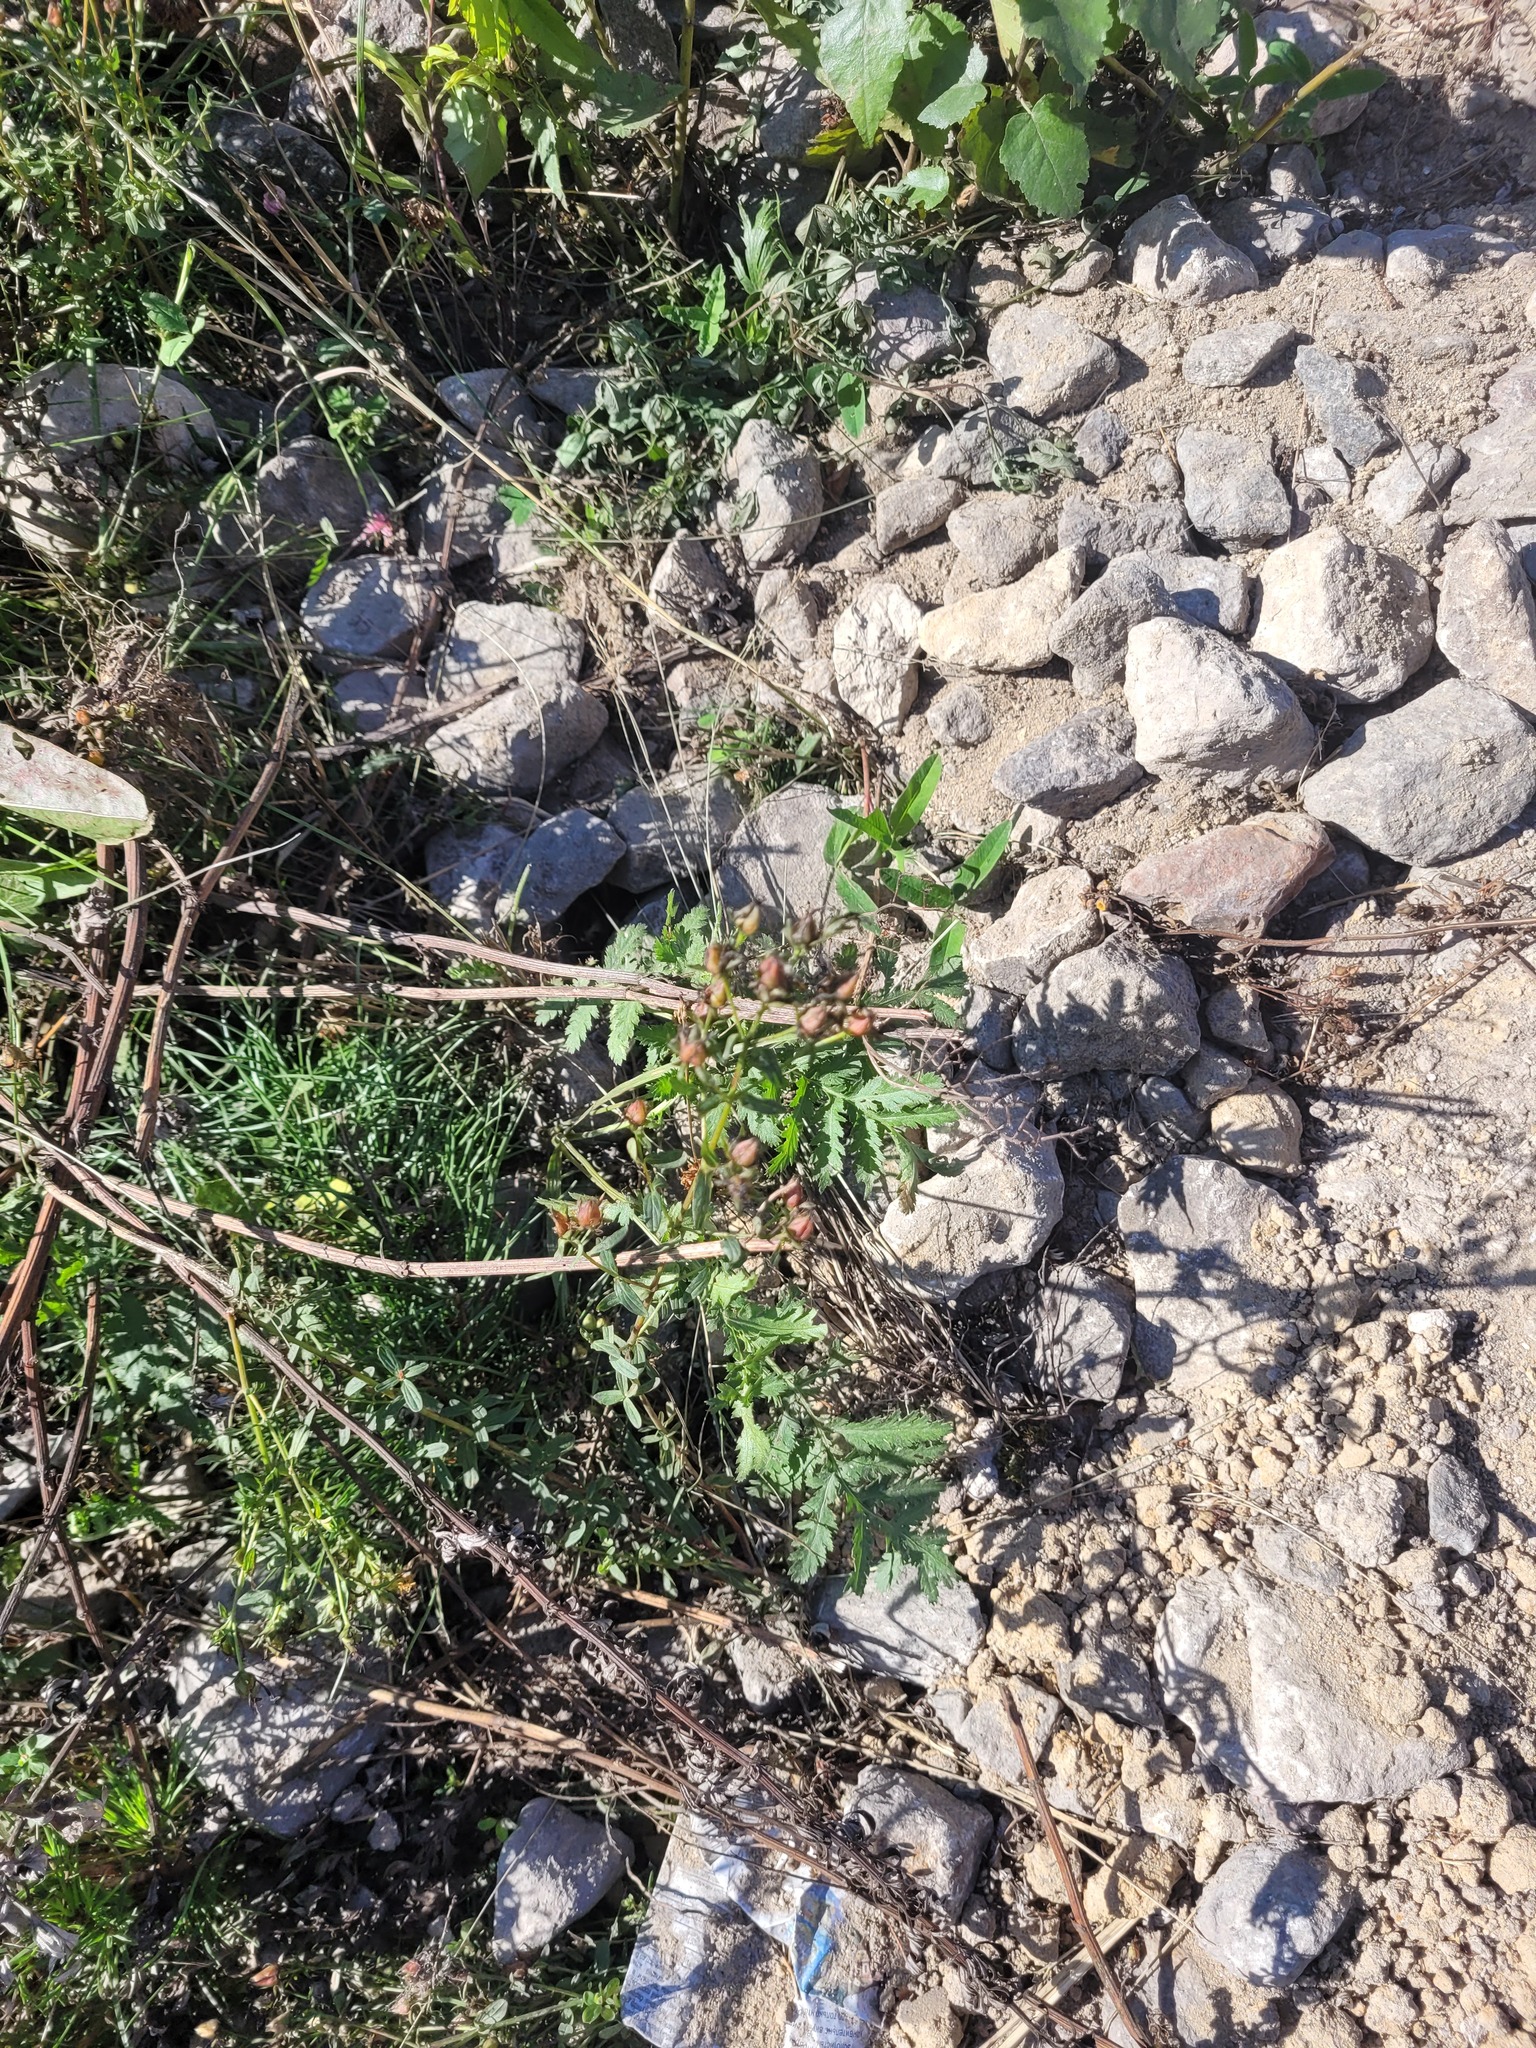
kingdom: Plantae
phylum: Tracheophyta
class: Magnoliopsida
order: Malpighiales
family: Hypericaceae
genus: Hypericum
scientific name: Hypericum perforatum
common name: Common st. johnswort
